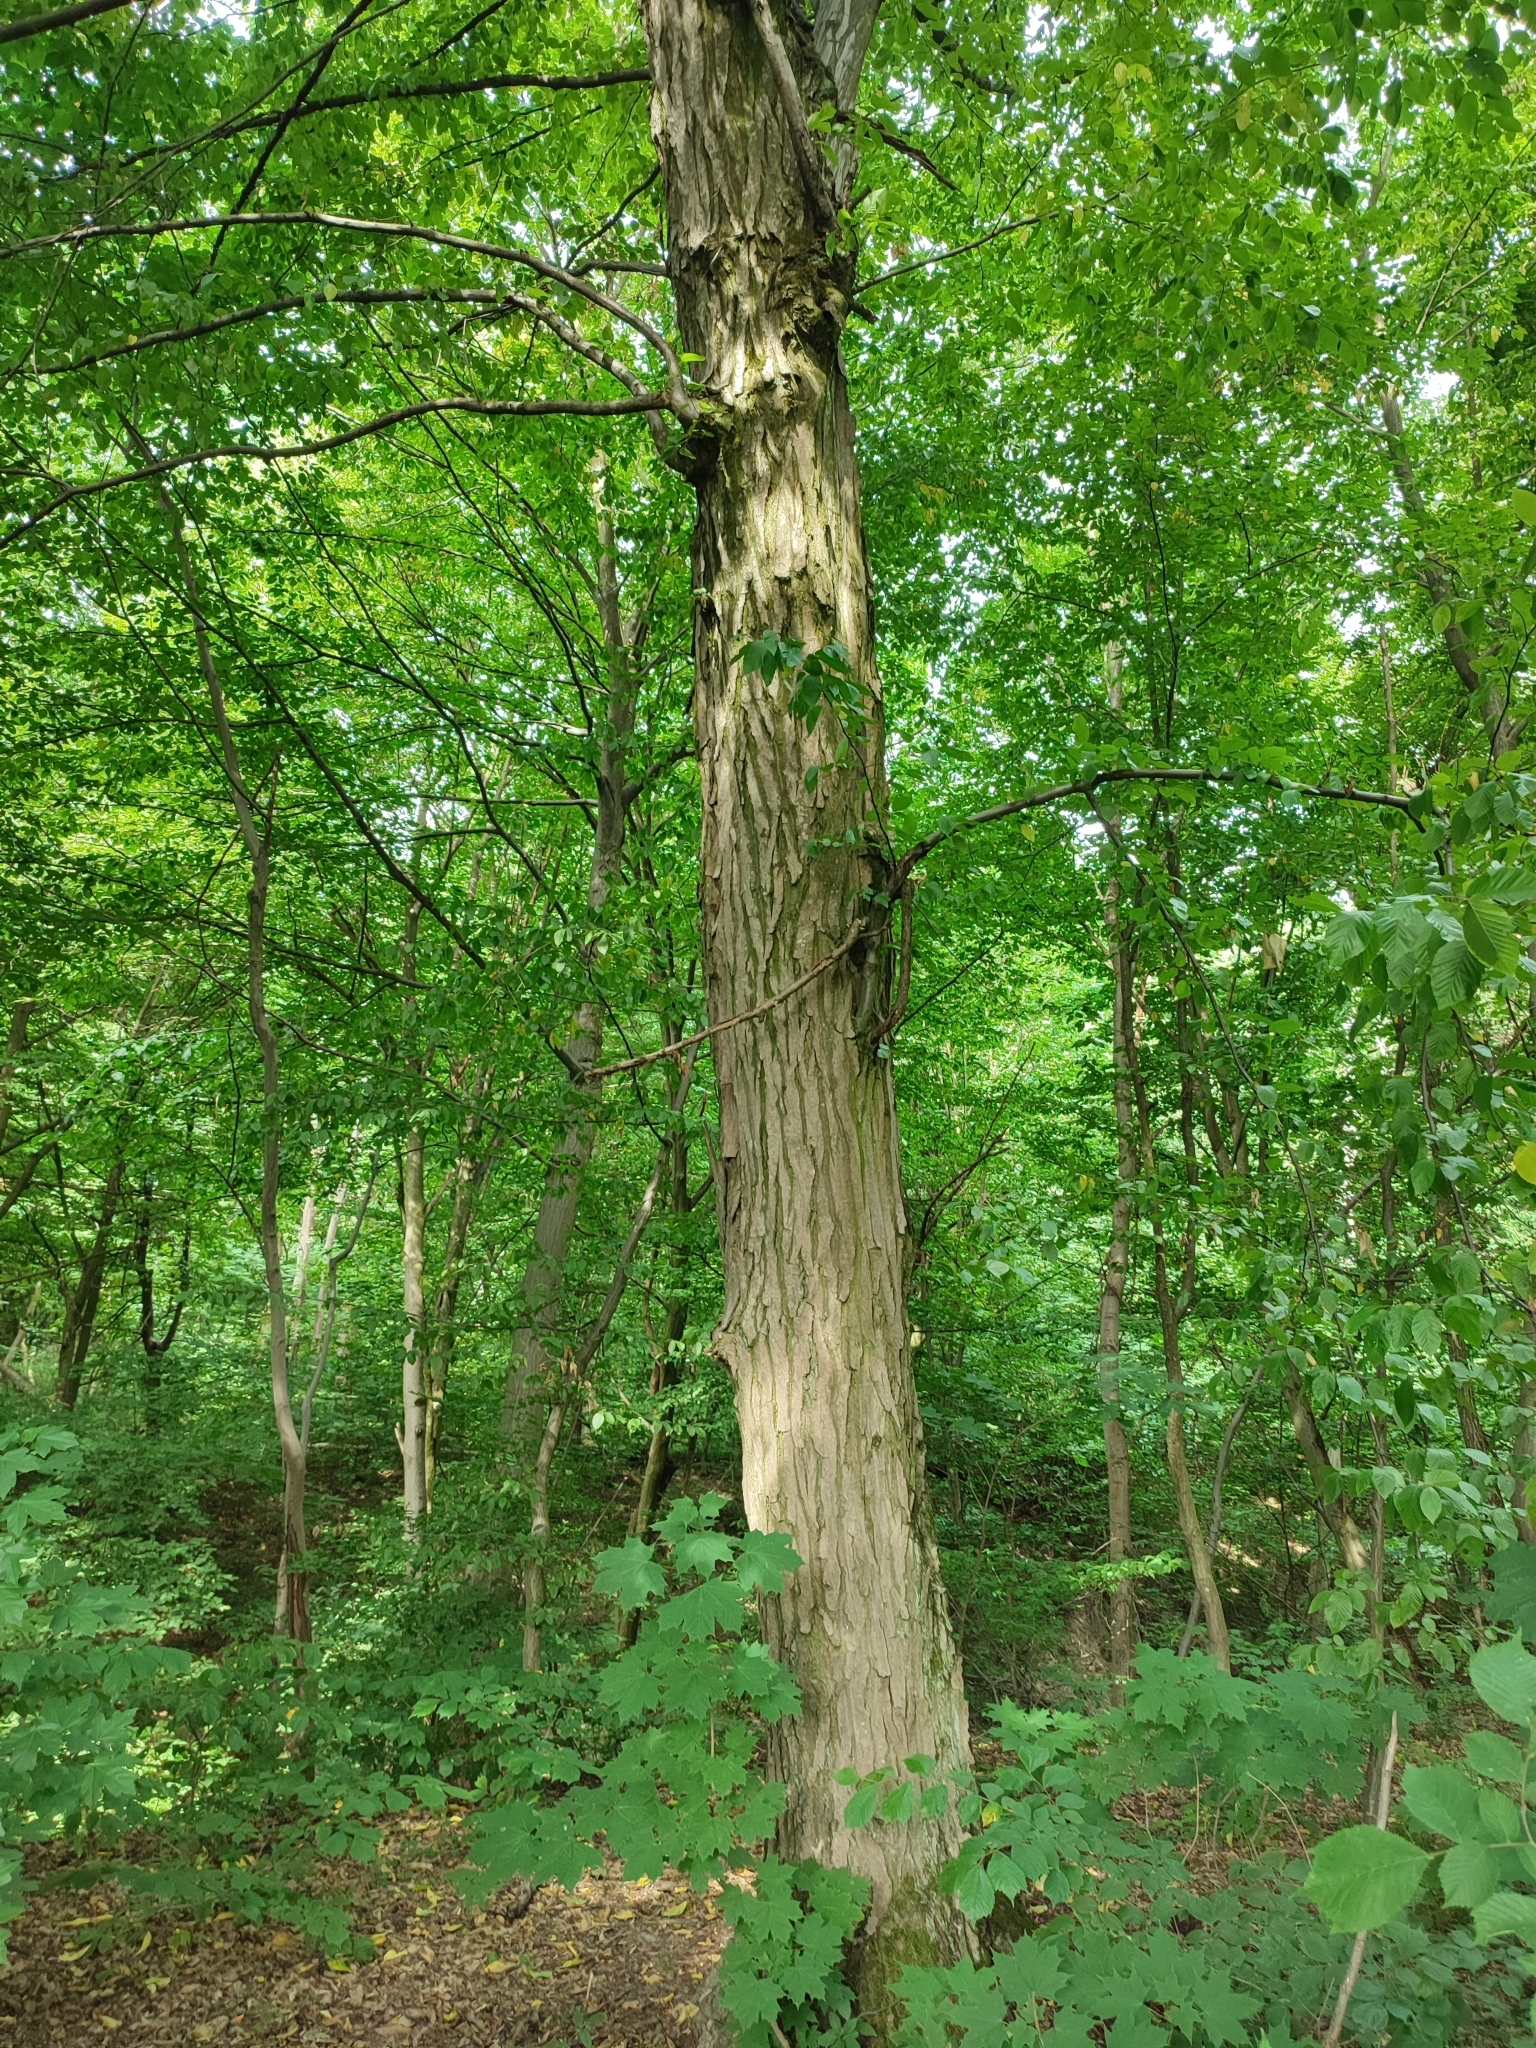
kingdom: Plantae
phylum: Tracheophyta
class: Magnoliopsida
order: Fagales
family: Betulaceae
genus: Carpinus
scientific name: Carpinus betulus
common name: Hornbeam
